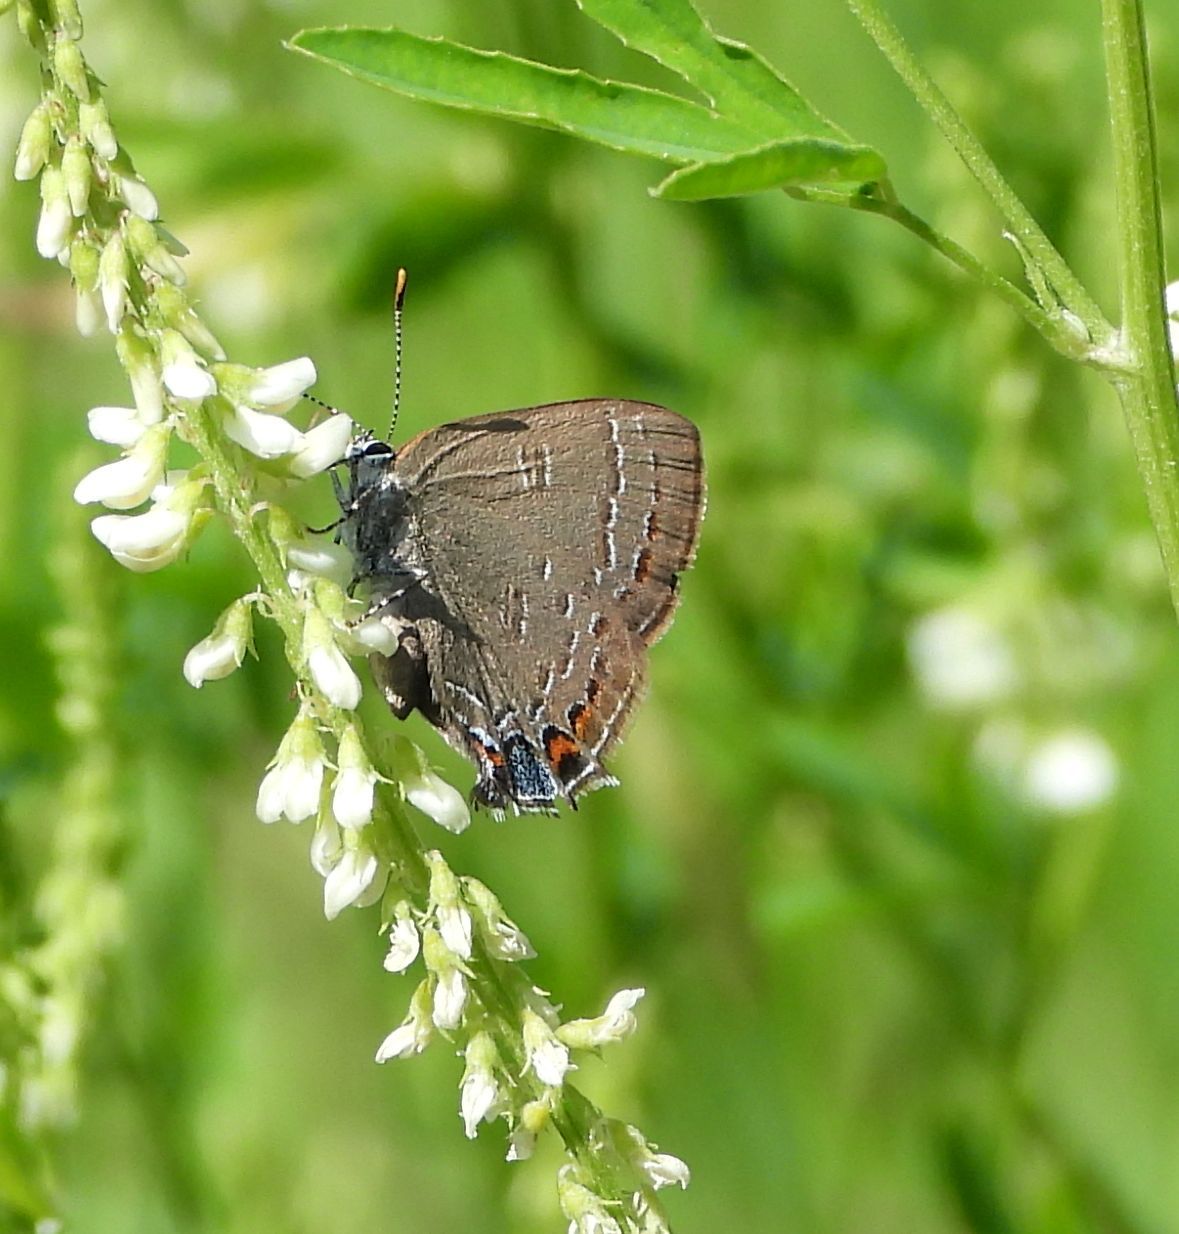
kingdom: Animalia
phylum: Arthropoda
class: Insecta
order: Lepidoptera
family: Lycaenidae
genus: Satyrium
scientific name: Satyrium calanus
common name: Banded hairstreak
